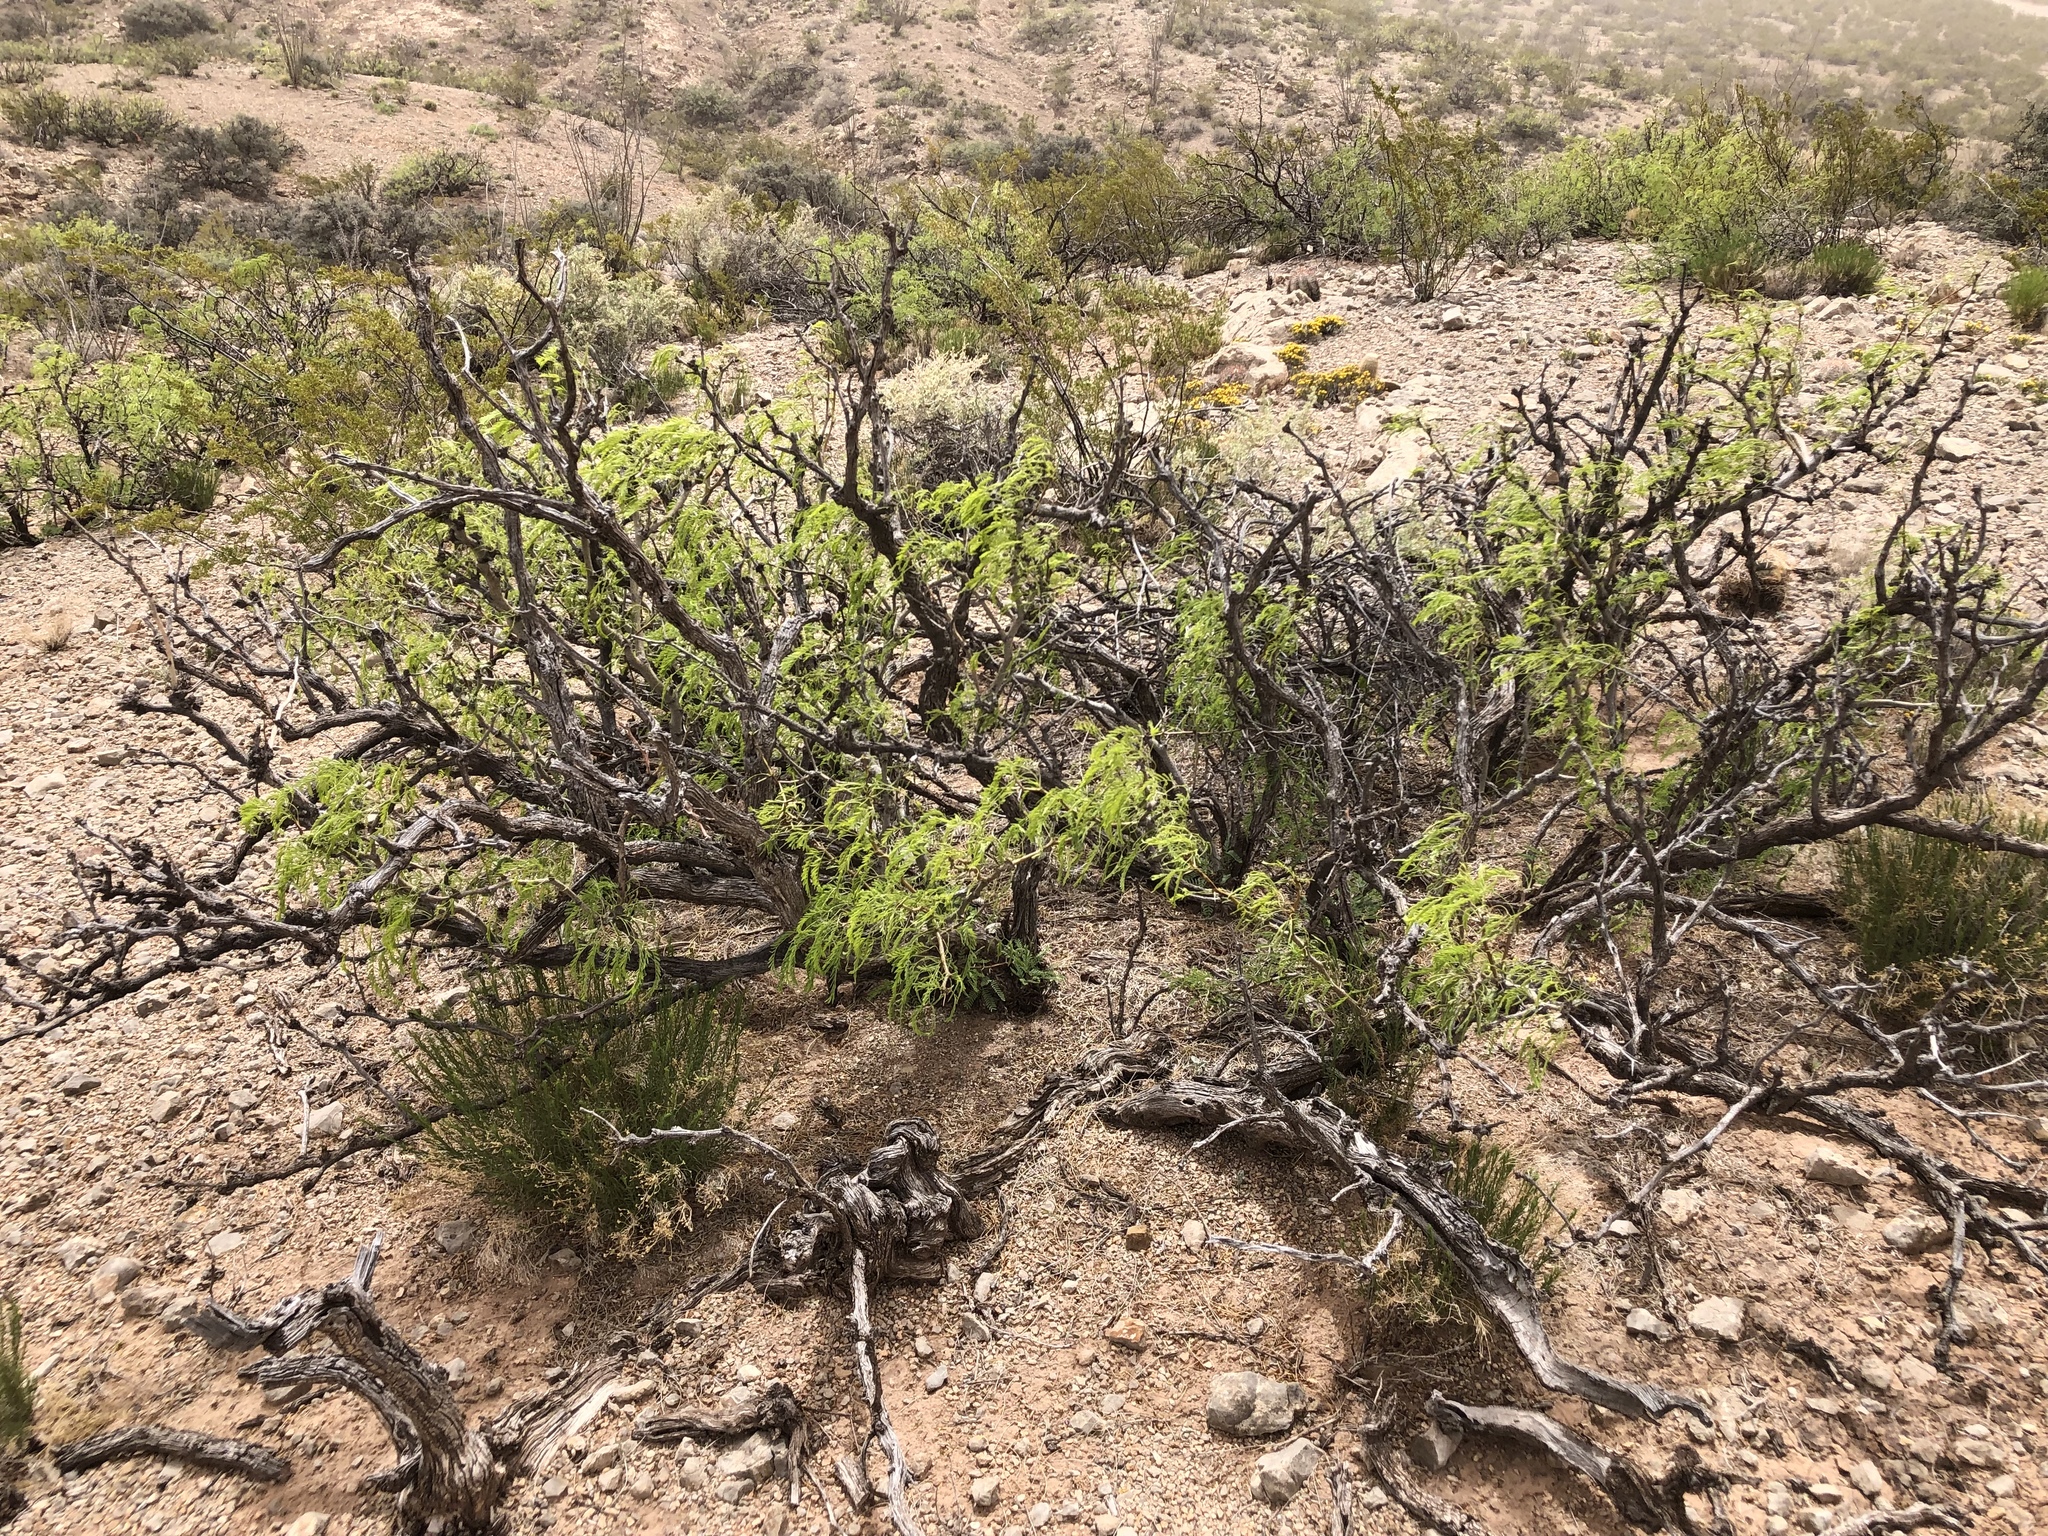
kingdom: Plantae
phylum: Tracheophyta
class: Magnoliopsida
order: Fabales
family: Fabaceae
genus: Prosopis
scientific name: Prosopis glandulosa
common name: Honey mesquite
